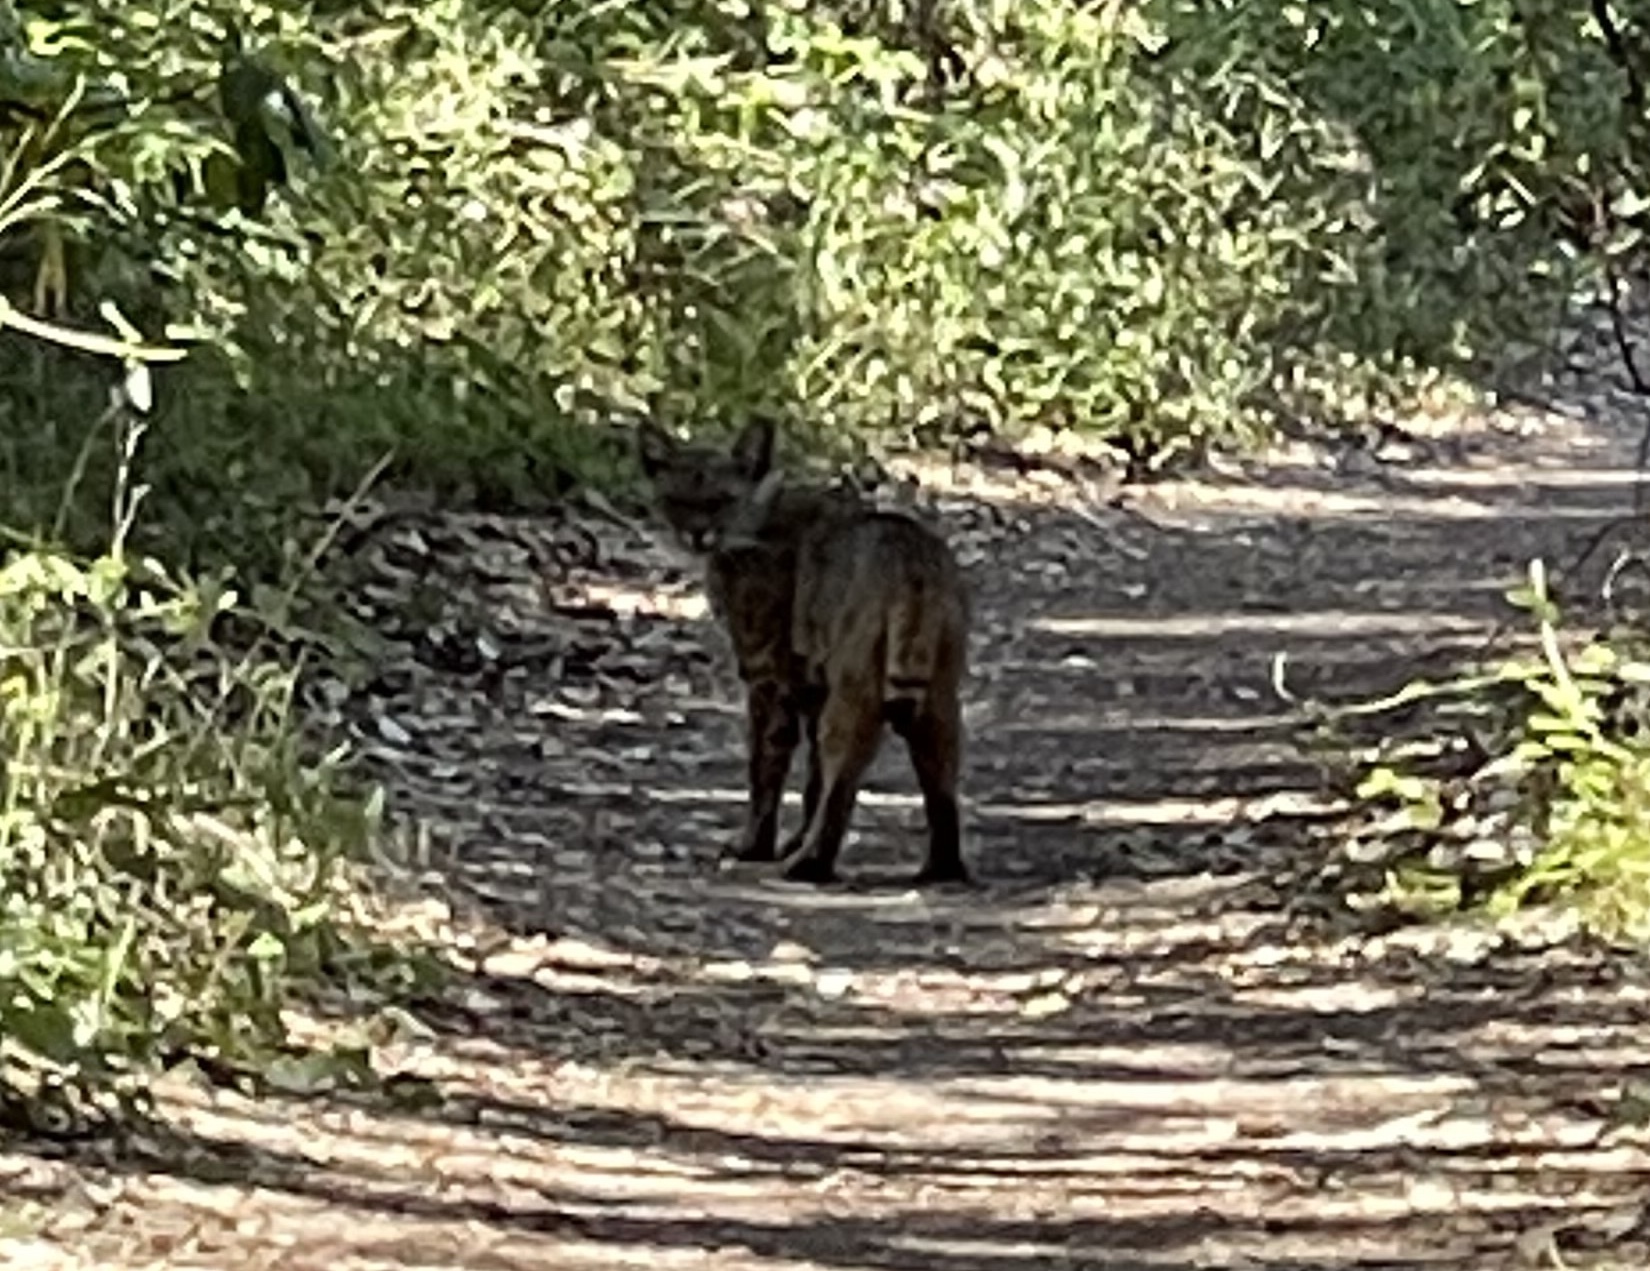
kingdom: Animalia
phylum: Chordata
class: Mammalia
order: Carnivora
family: Felidae
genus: Lynx
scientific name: Lynx rufus
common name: Bobcat
